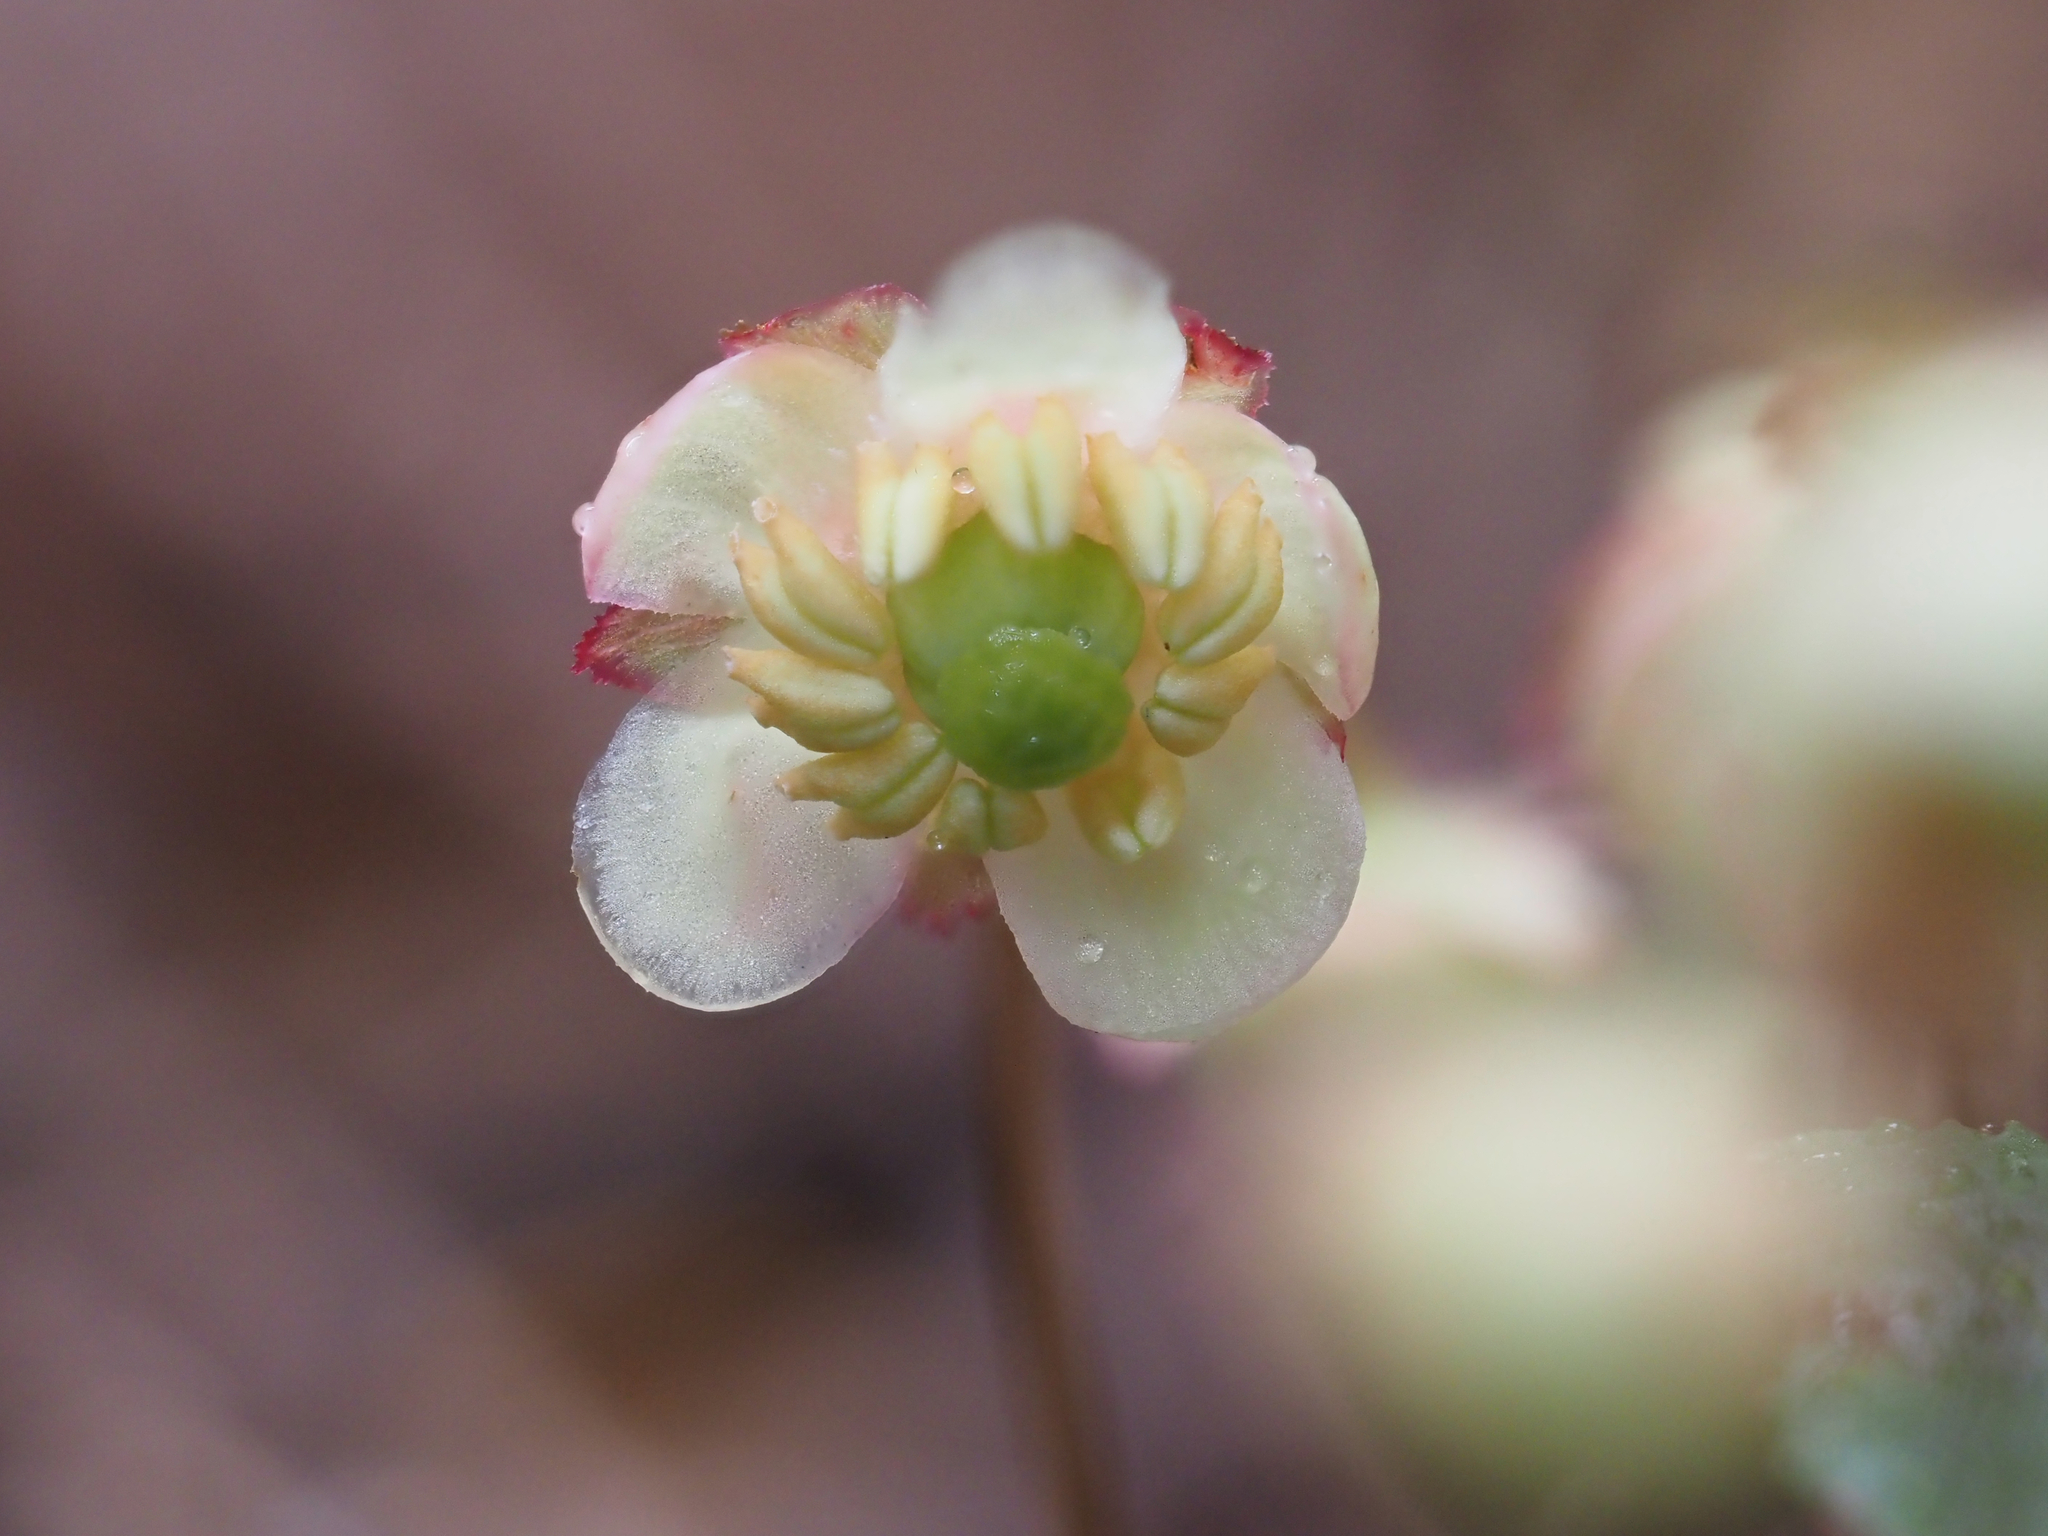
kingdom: Plantae
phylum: Tracheophyta
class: Magnoliopsida
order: Ericales
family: Ericaceae
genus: Chimaphila
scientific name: Chimaphila menziesii
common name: Menzies' pipsissewa
